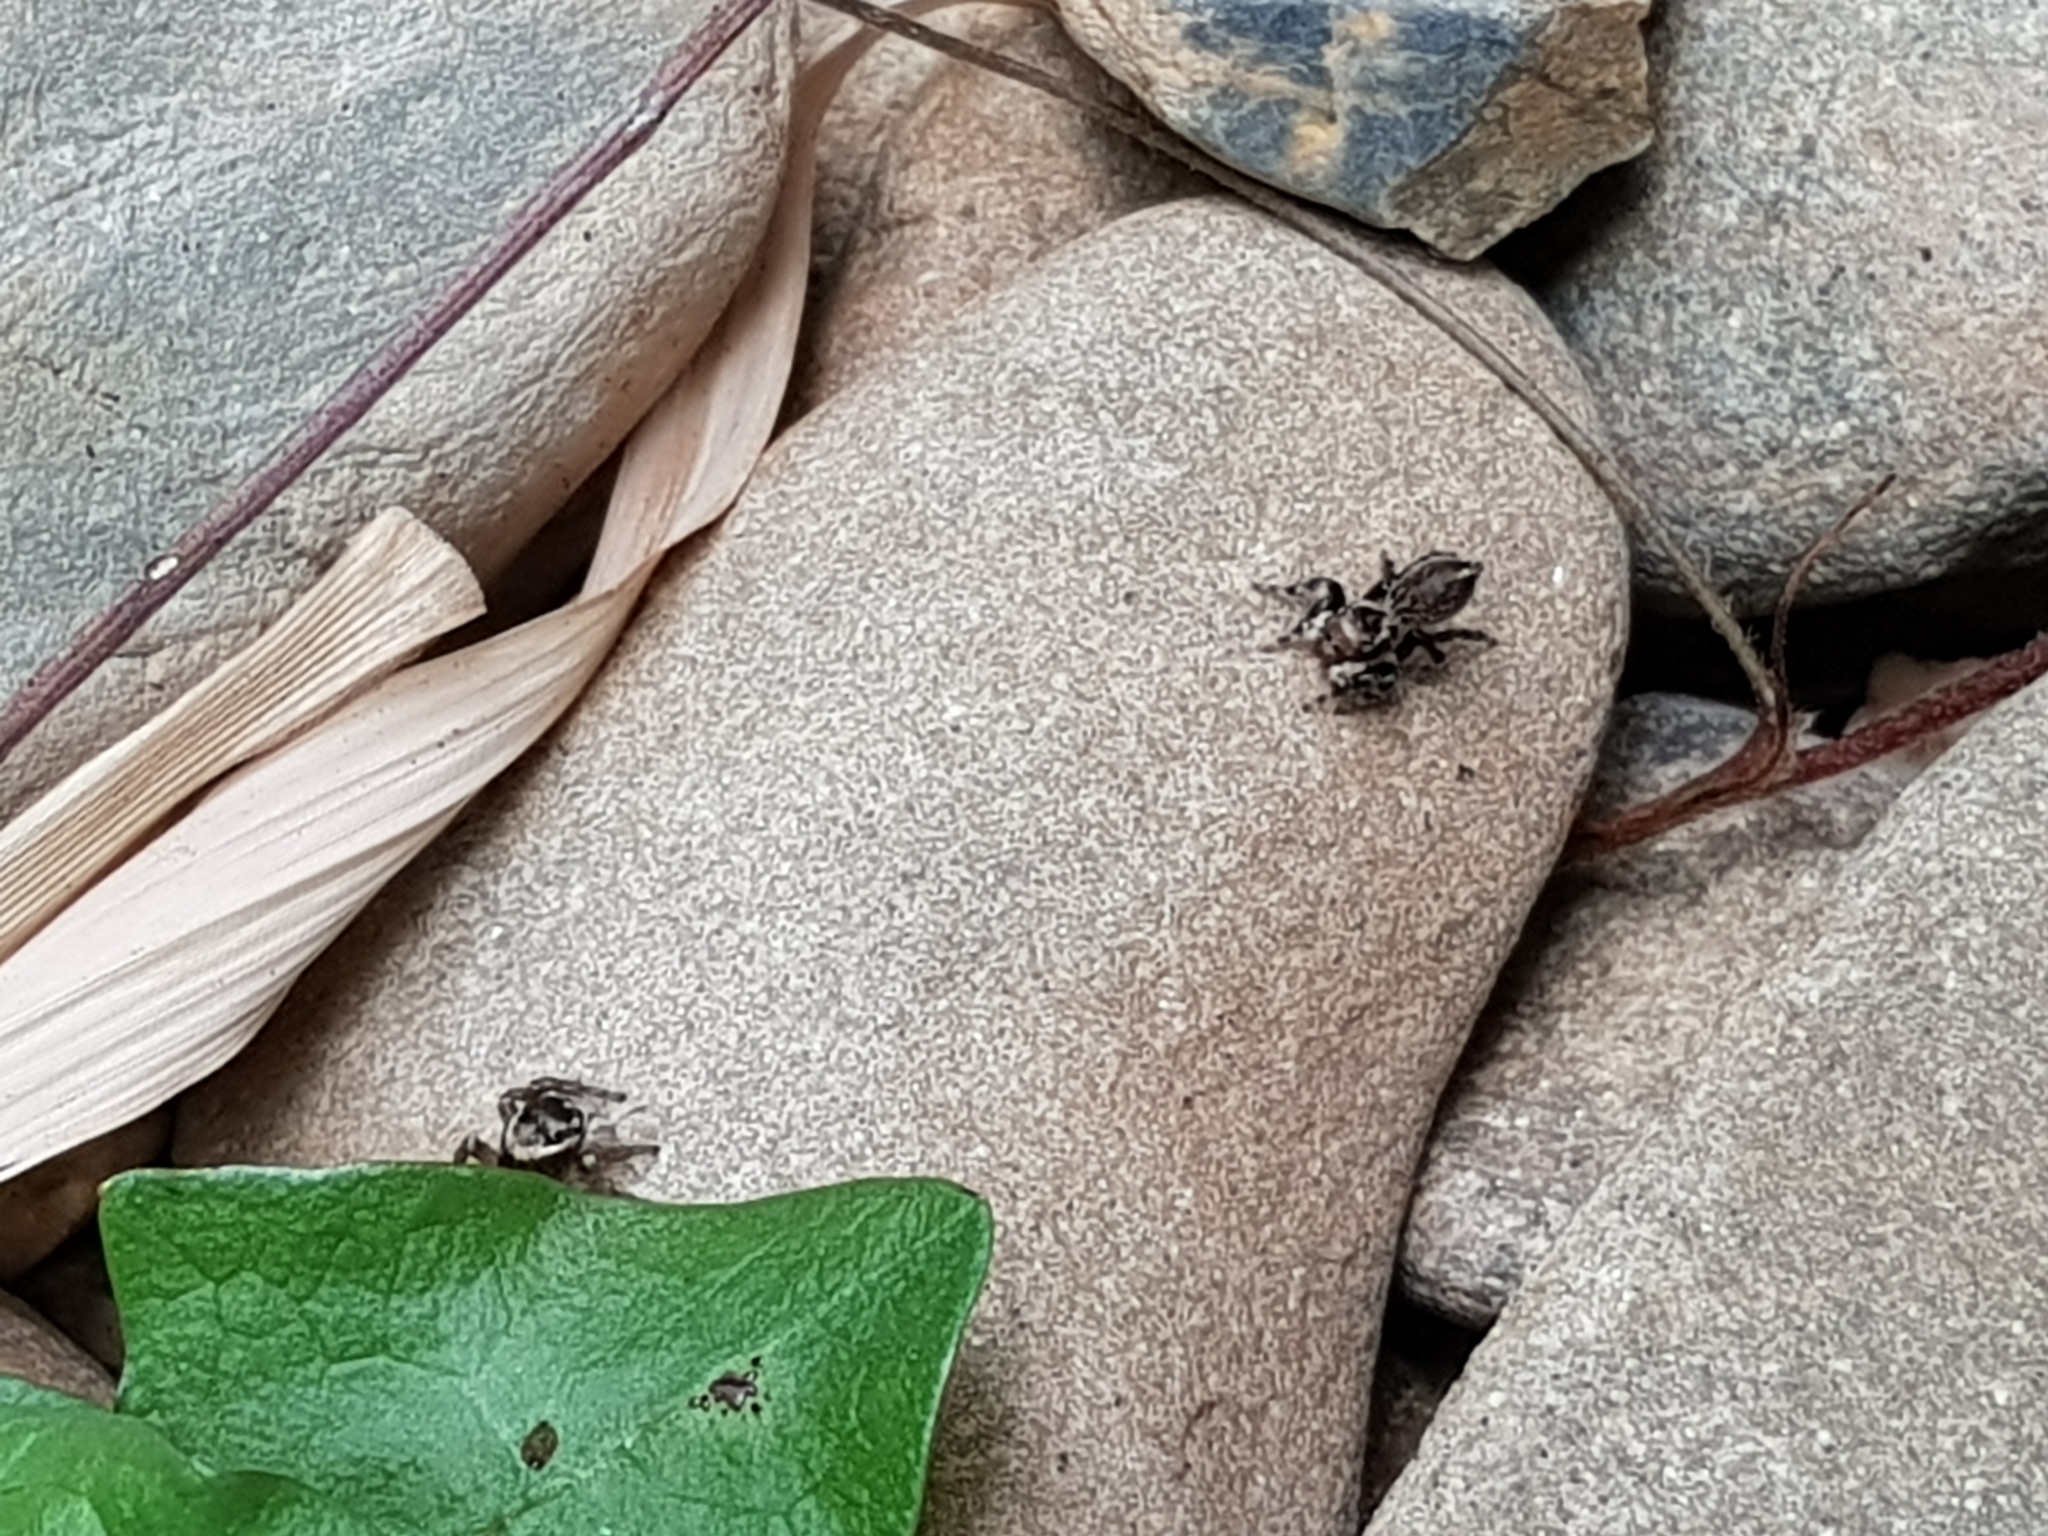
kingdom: Animalia
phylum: Arthropoda
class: Arachnida
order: Araneae
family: Salticidae
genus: Maratus
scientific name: Maratus griseus
